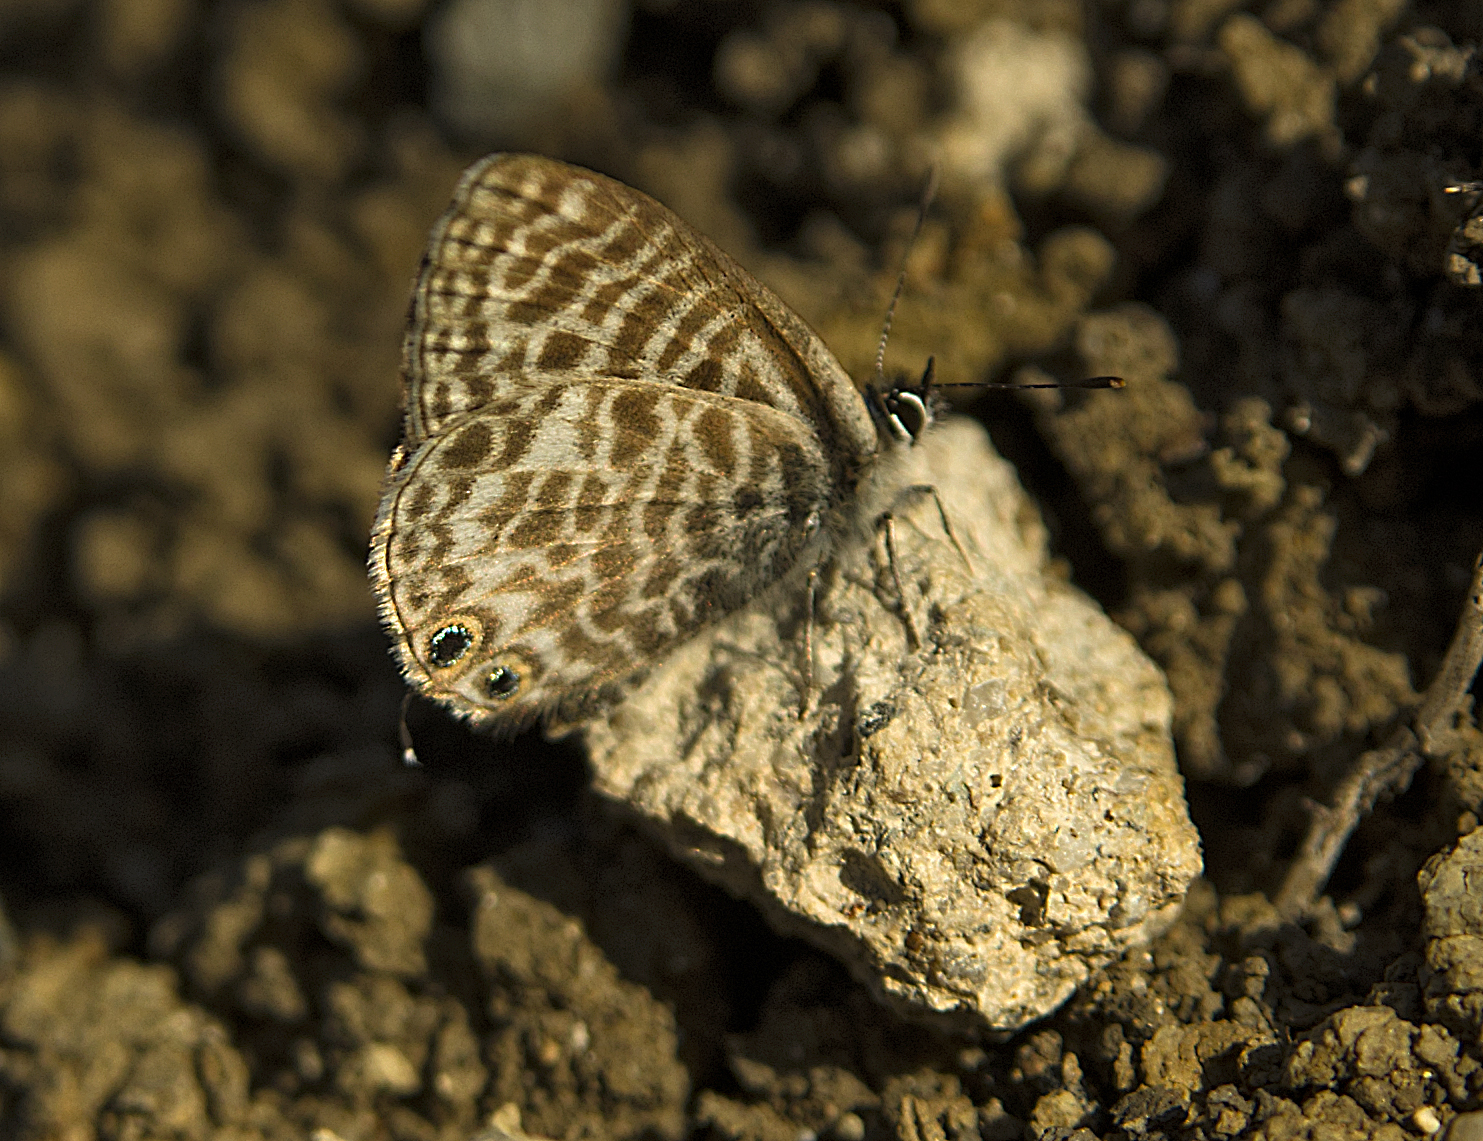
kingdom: Animalia
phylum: Arthropoda
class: Insecta
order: Lepidoptera
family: Lycaenidae
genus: Leptotes
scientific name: Leptotes pirithous
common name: Lang's short-tailed blue
